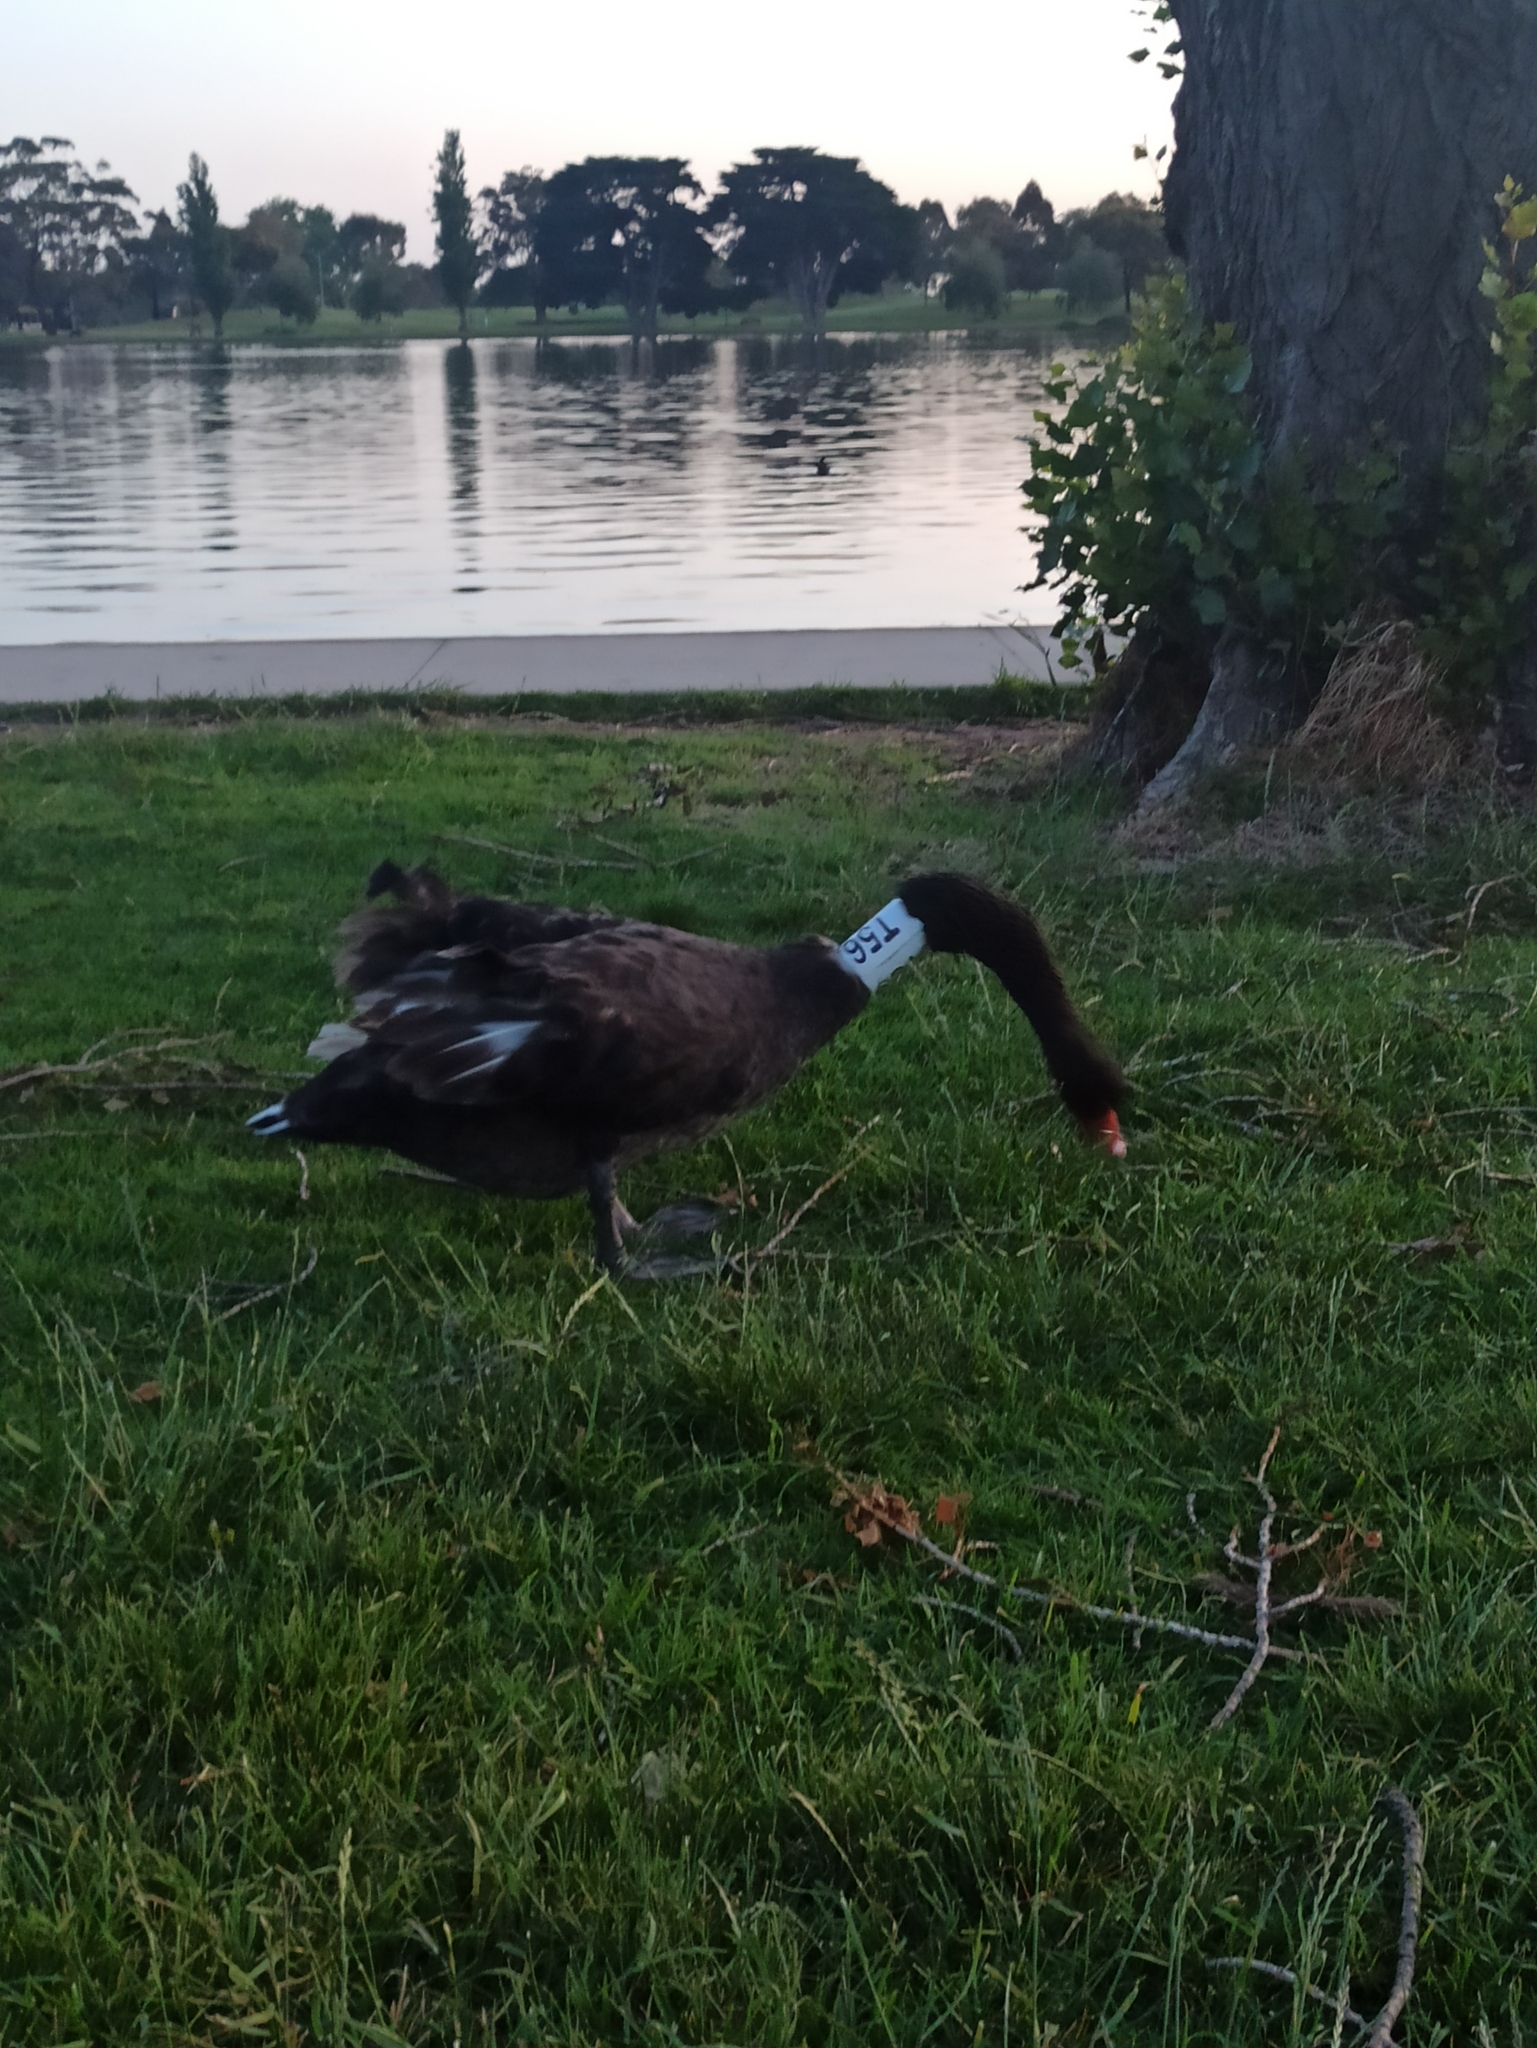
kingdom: Animalia
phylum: Chordata
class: Aves
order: Anseriformes
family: Anatidae
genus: Cygnus
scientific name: Cygnus atratus
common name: Black swan
